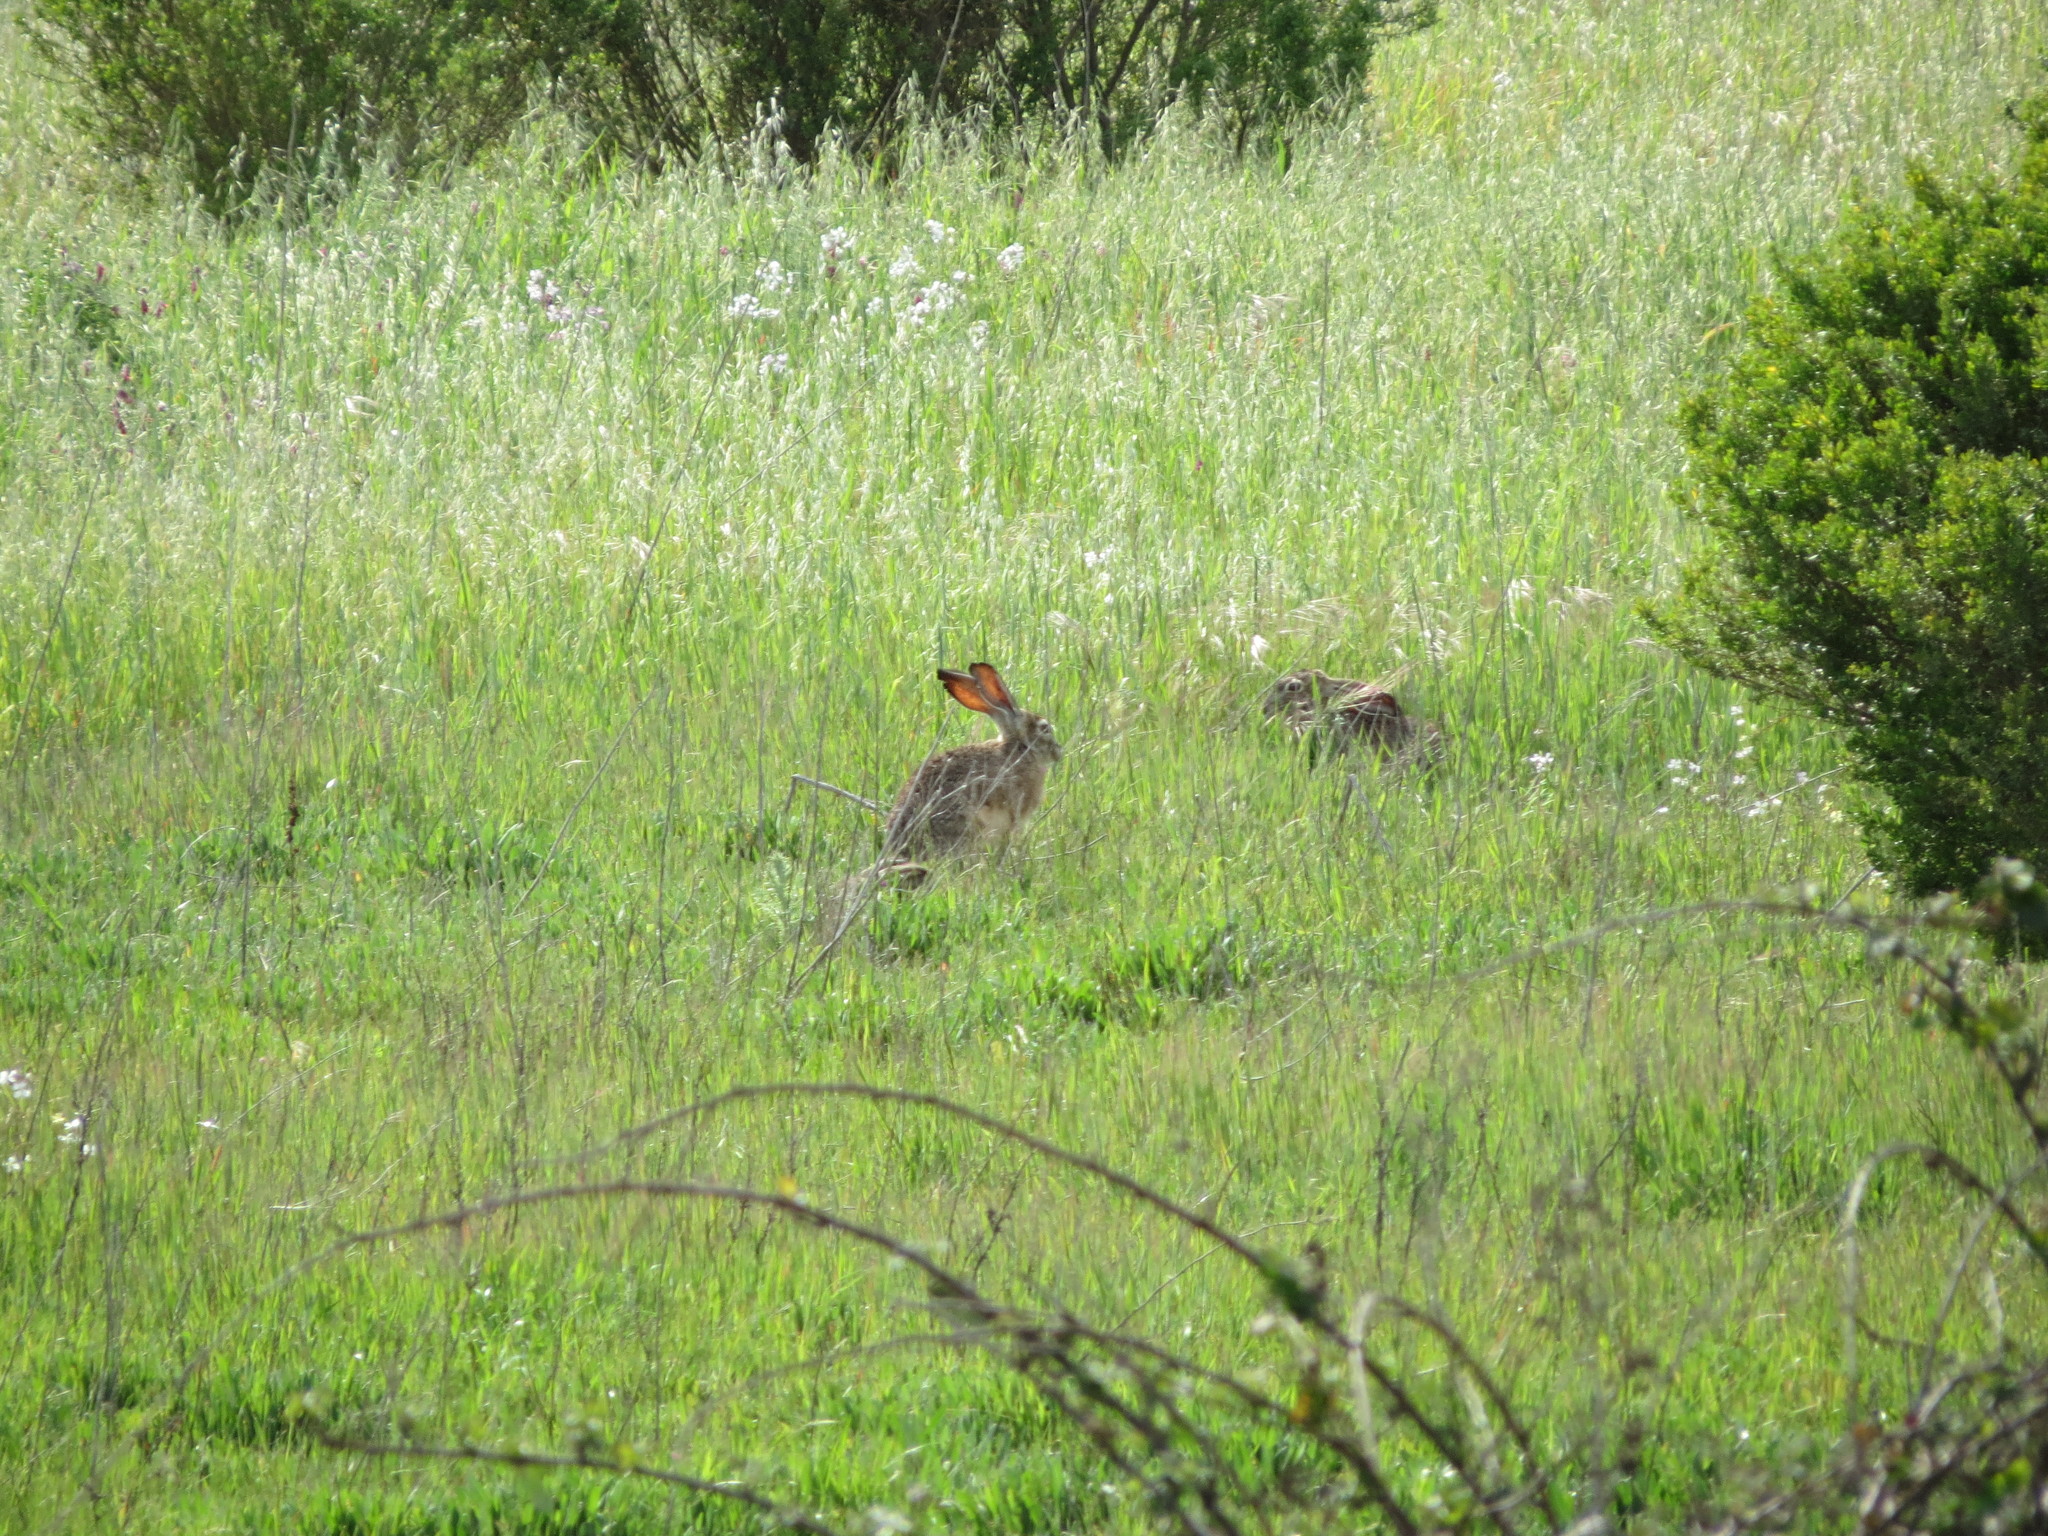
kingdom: Animalia
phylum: Chordata
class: Mammalia
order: Lagomorpha
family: Leporidae
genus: Lepus
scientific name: Lepus californicus
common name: Black-tailed jackrabbit
